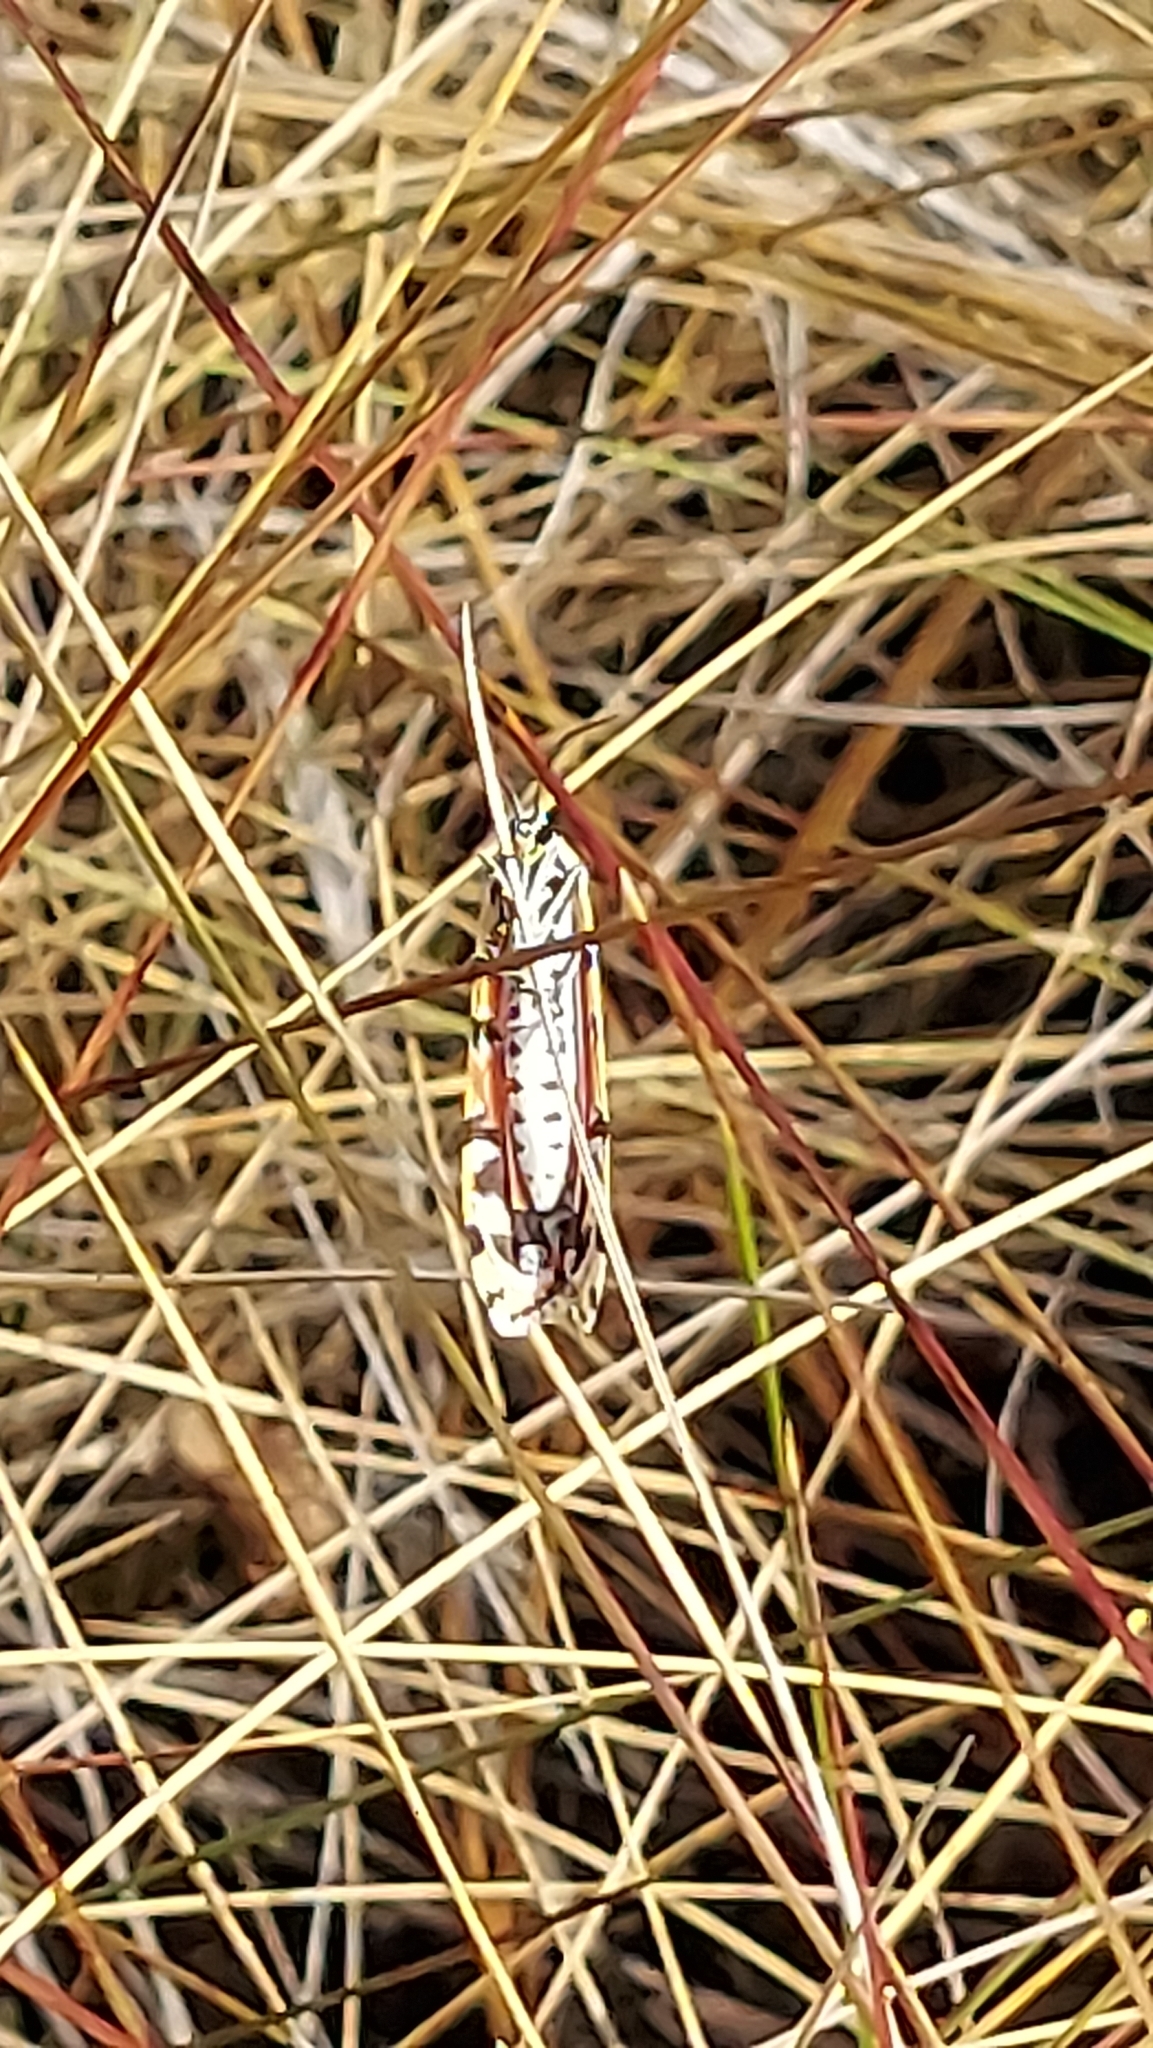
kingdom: Animalia
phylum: Arthropoda
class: Insecta
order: Lepidoptera
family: Erebidae
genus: Utetheisa
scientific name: Utetheisa ornatrix
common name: Beautiful utetheisa
